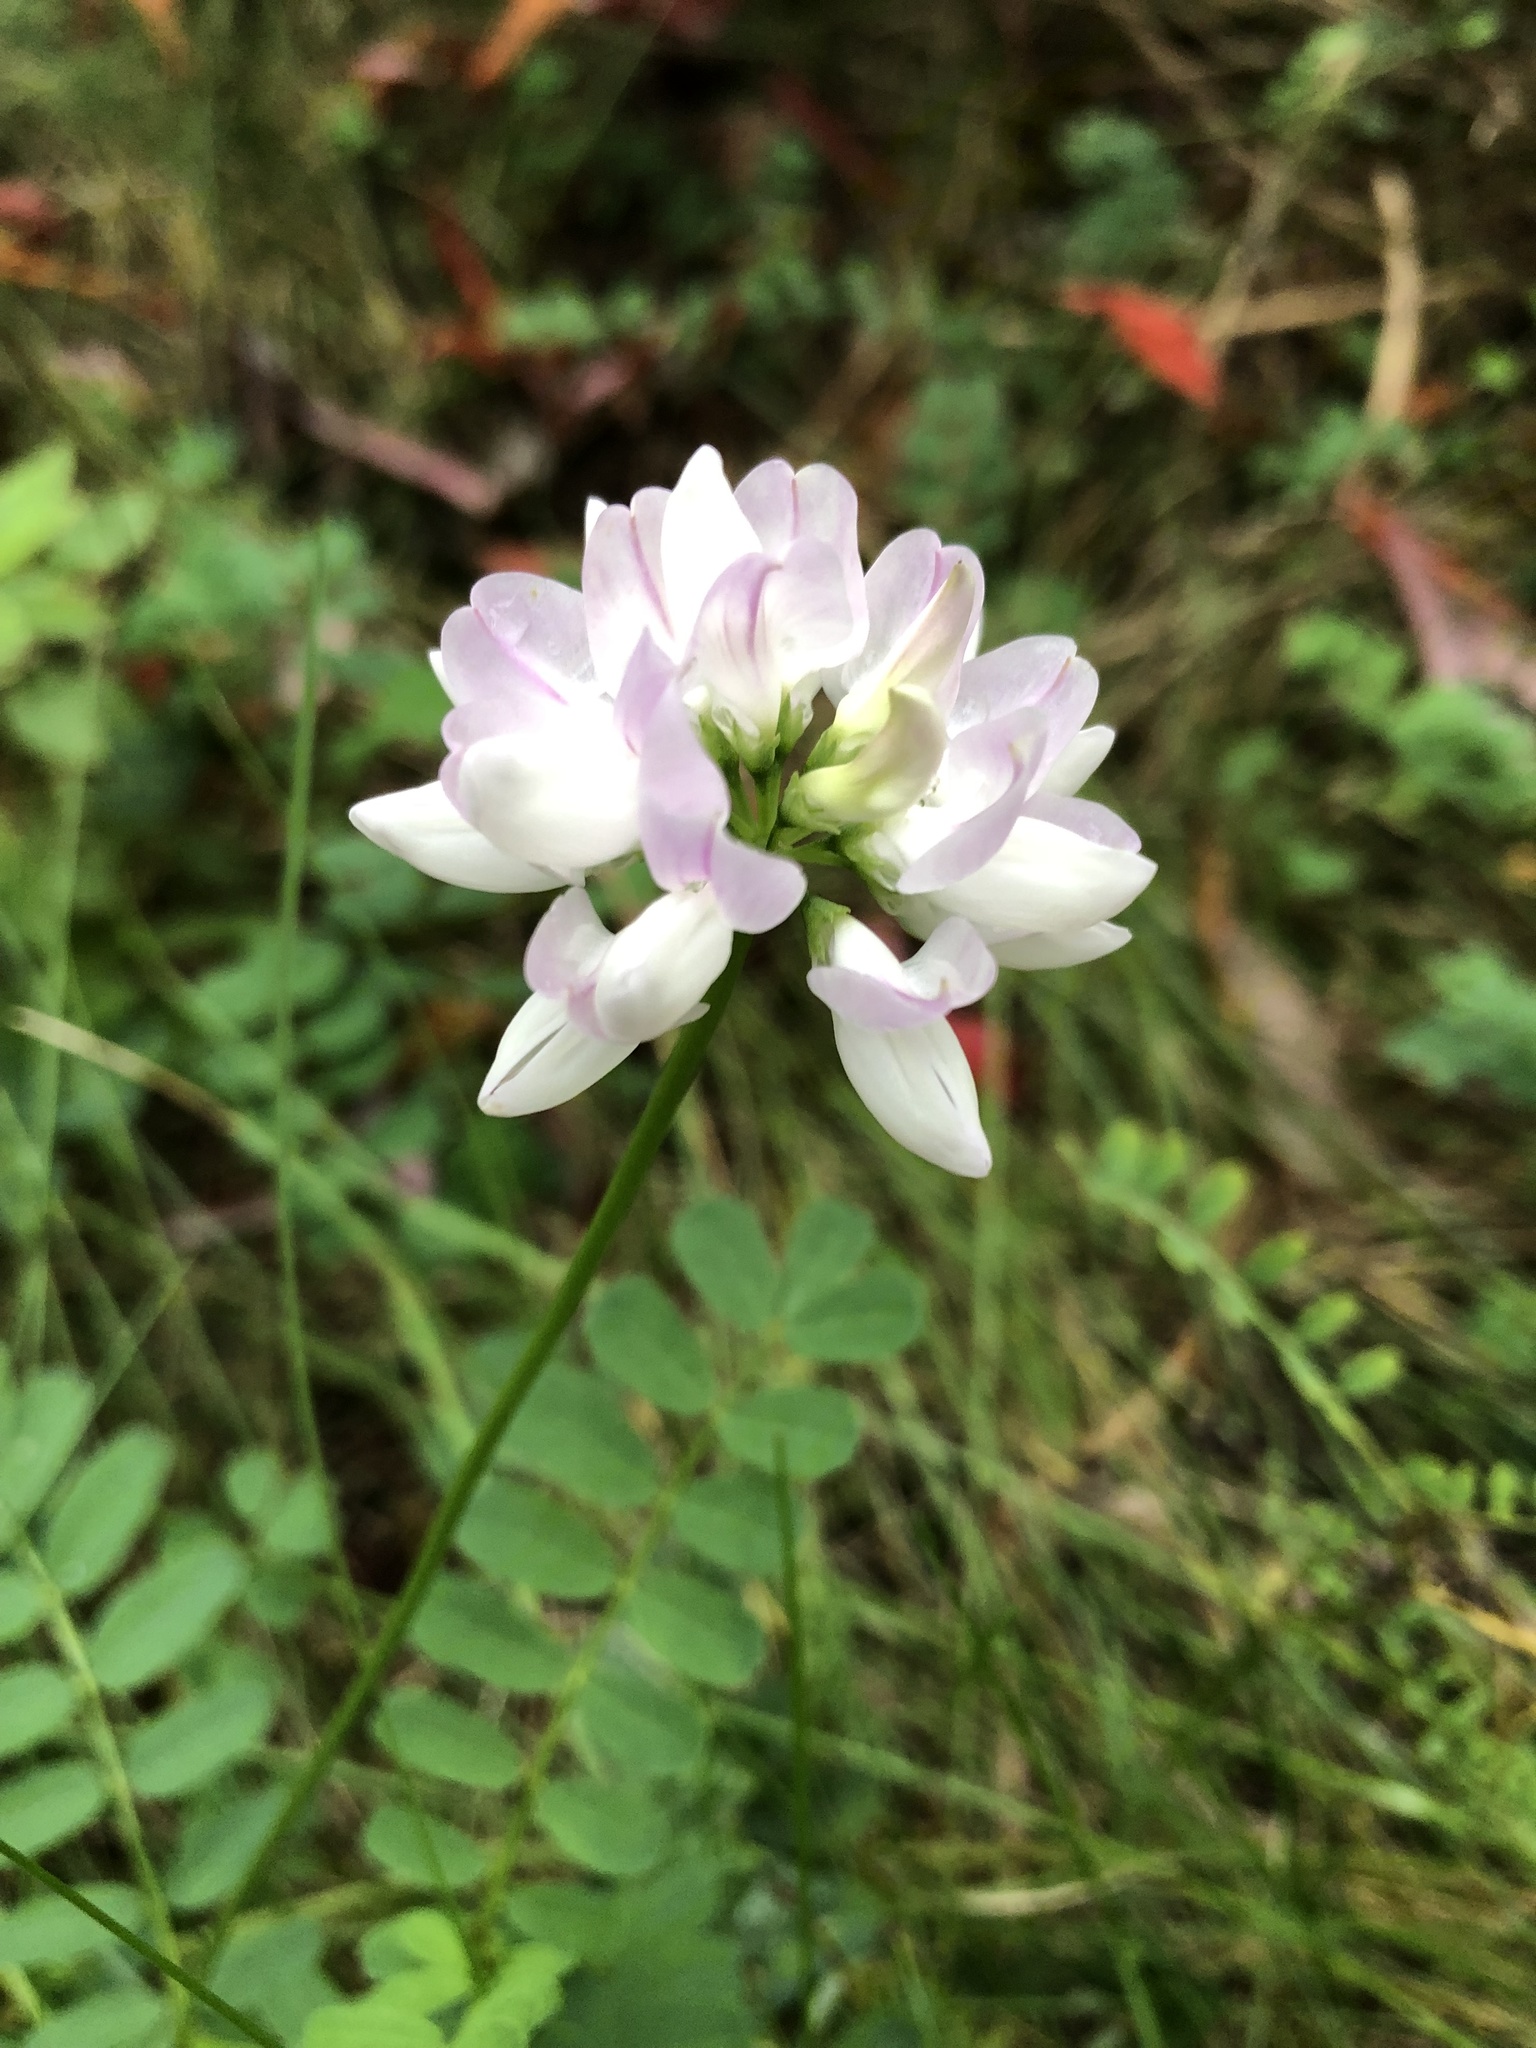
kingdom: Plantae
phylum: Tracheophyta
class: Magnoliopsida
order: Fabales
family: Fabaceae
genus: Coronilla
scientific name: Coronilla varia
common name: Crownvetch
